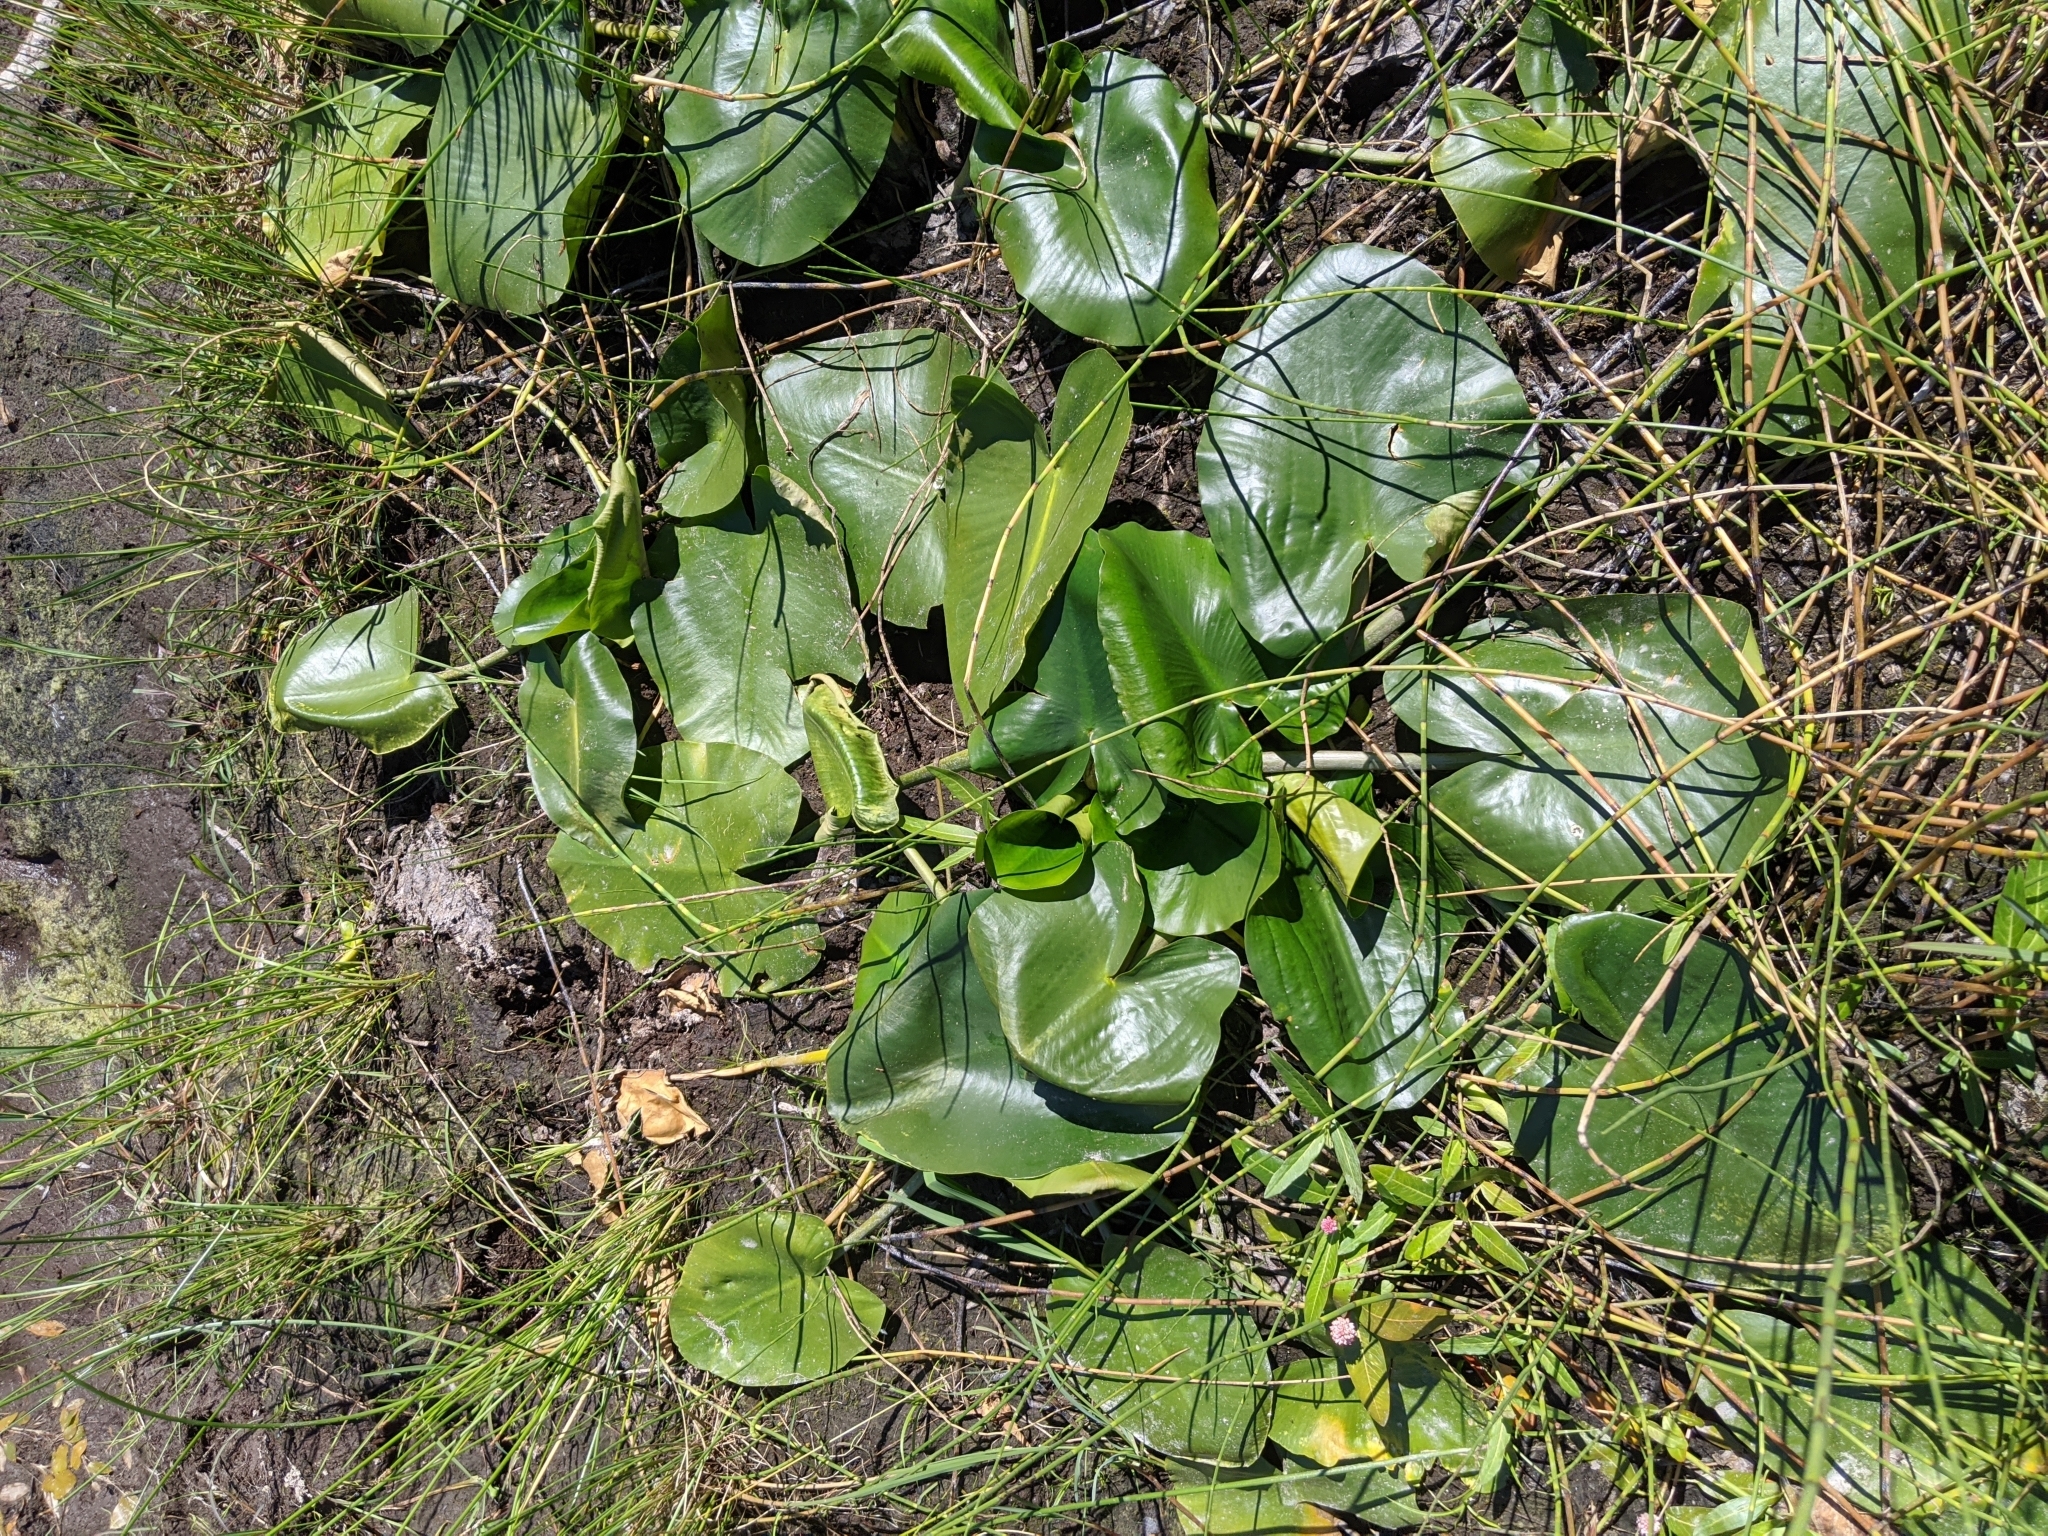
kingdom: Plantae
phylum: Tracheophyta
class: Magnoliopsida
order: Nymphaeales
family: Nymphaeaceae
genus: Nuphar
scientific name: Nuphar polysepala
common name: Rocky mountain cow-lily
